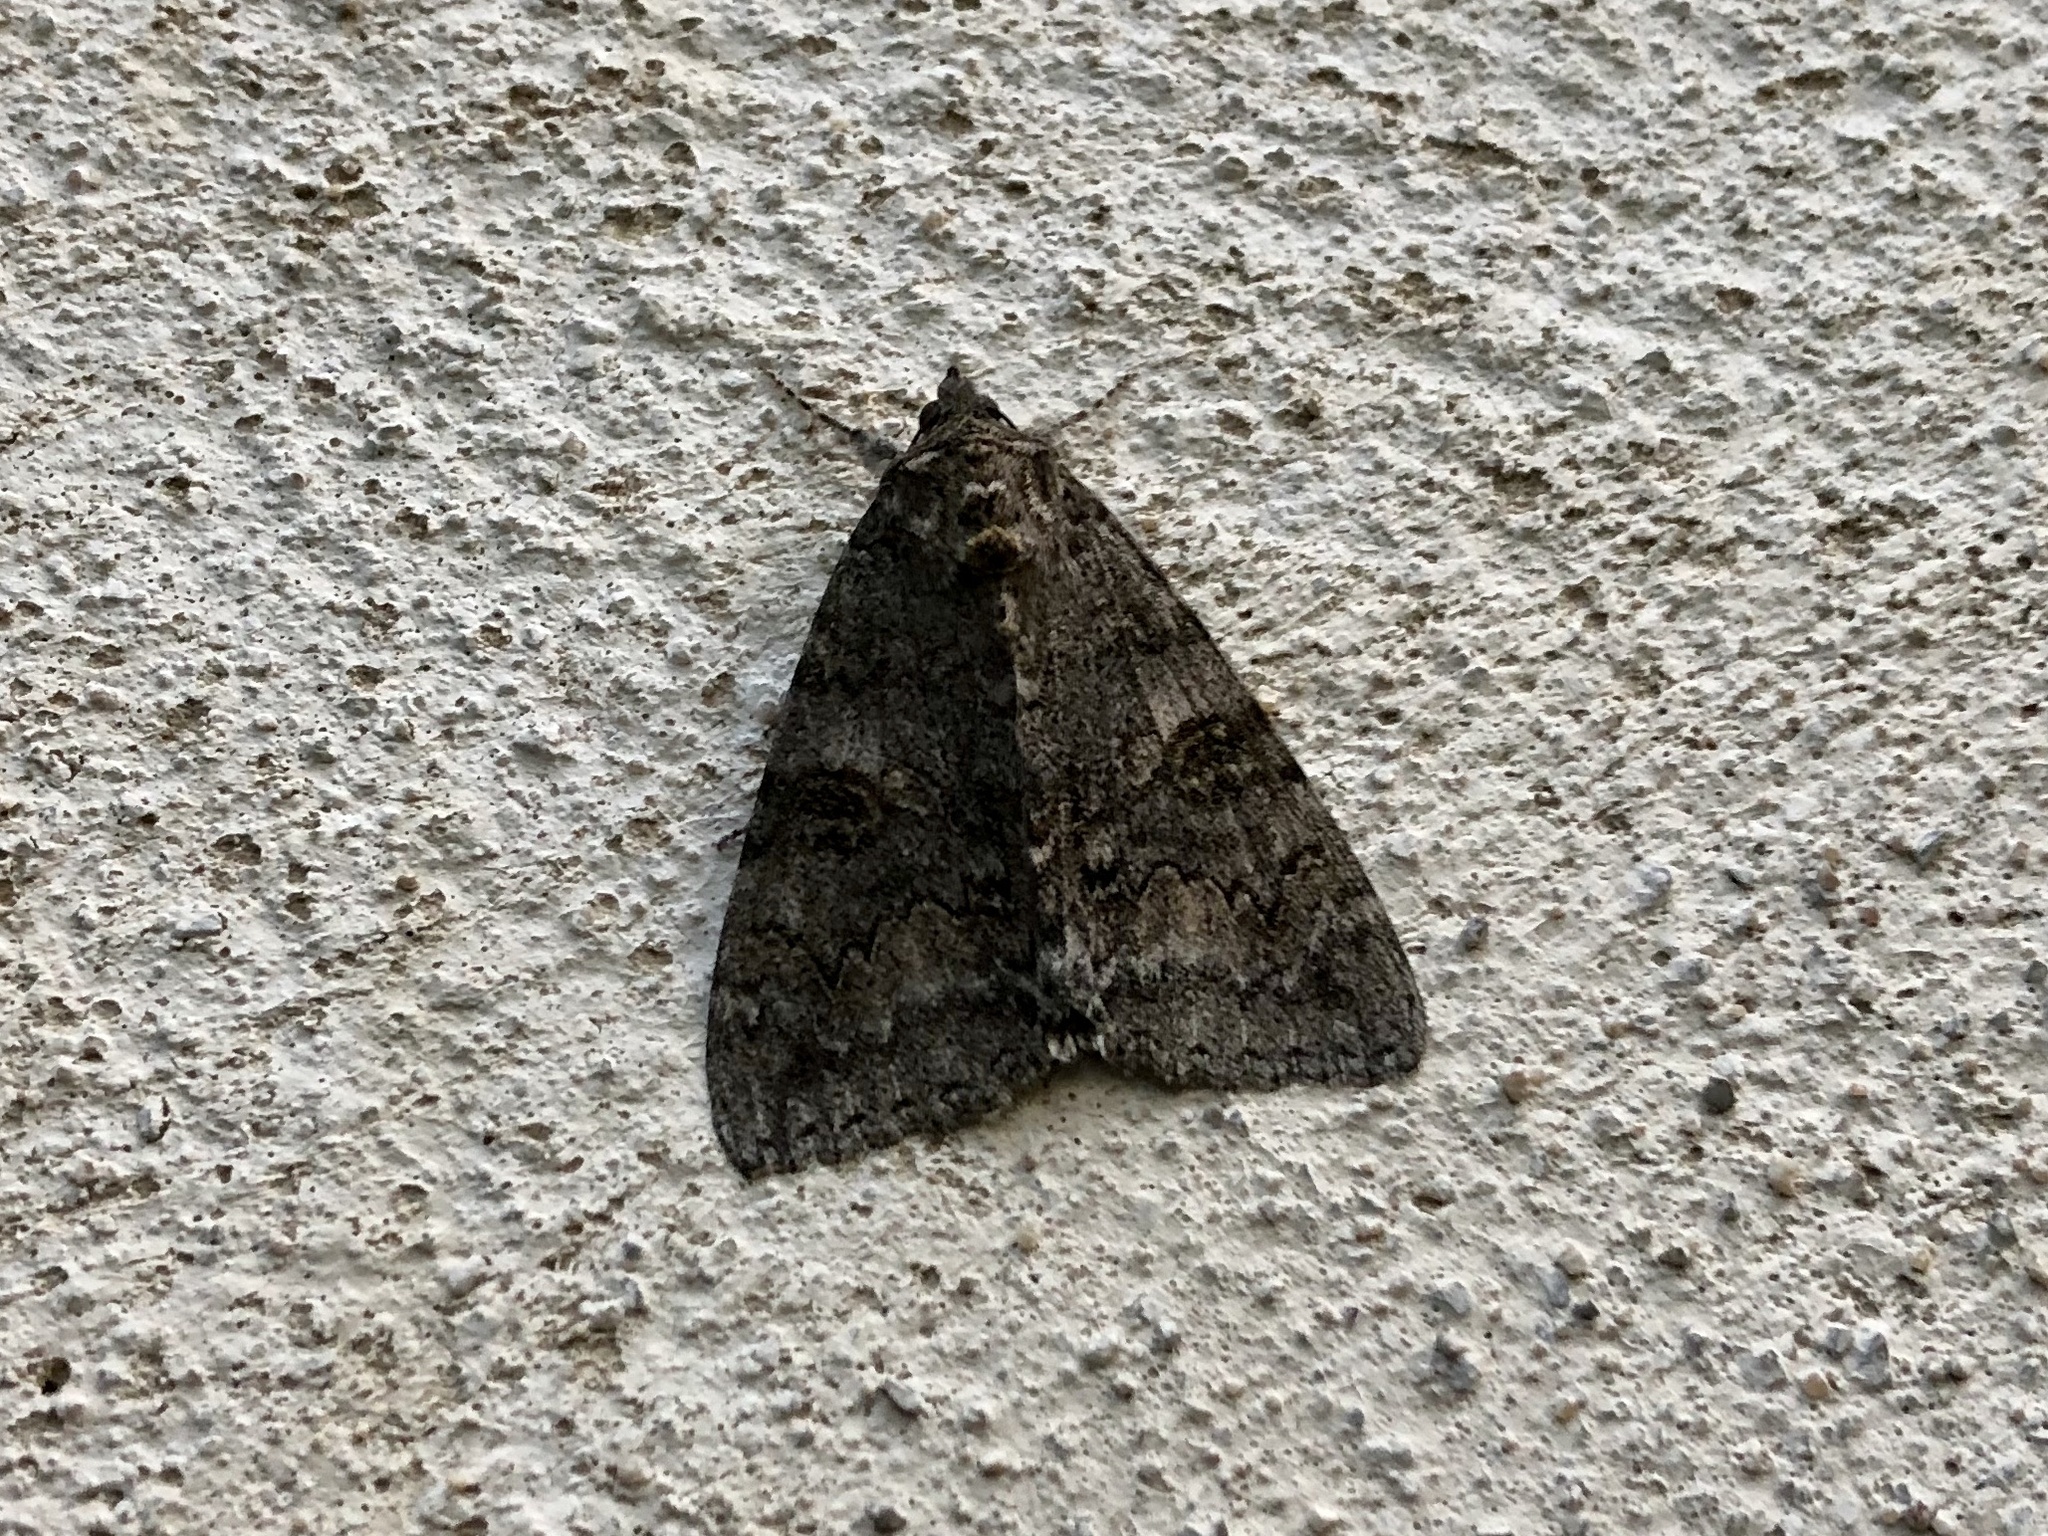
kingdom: Animalia
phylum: Arthropoda
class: Insecta
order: Lepidoptera
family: Erebidae
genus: Catocala
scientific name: Catocala nupta
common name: Red underwing
